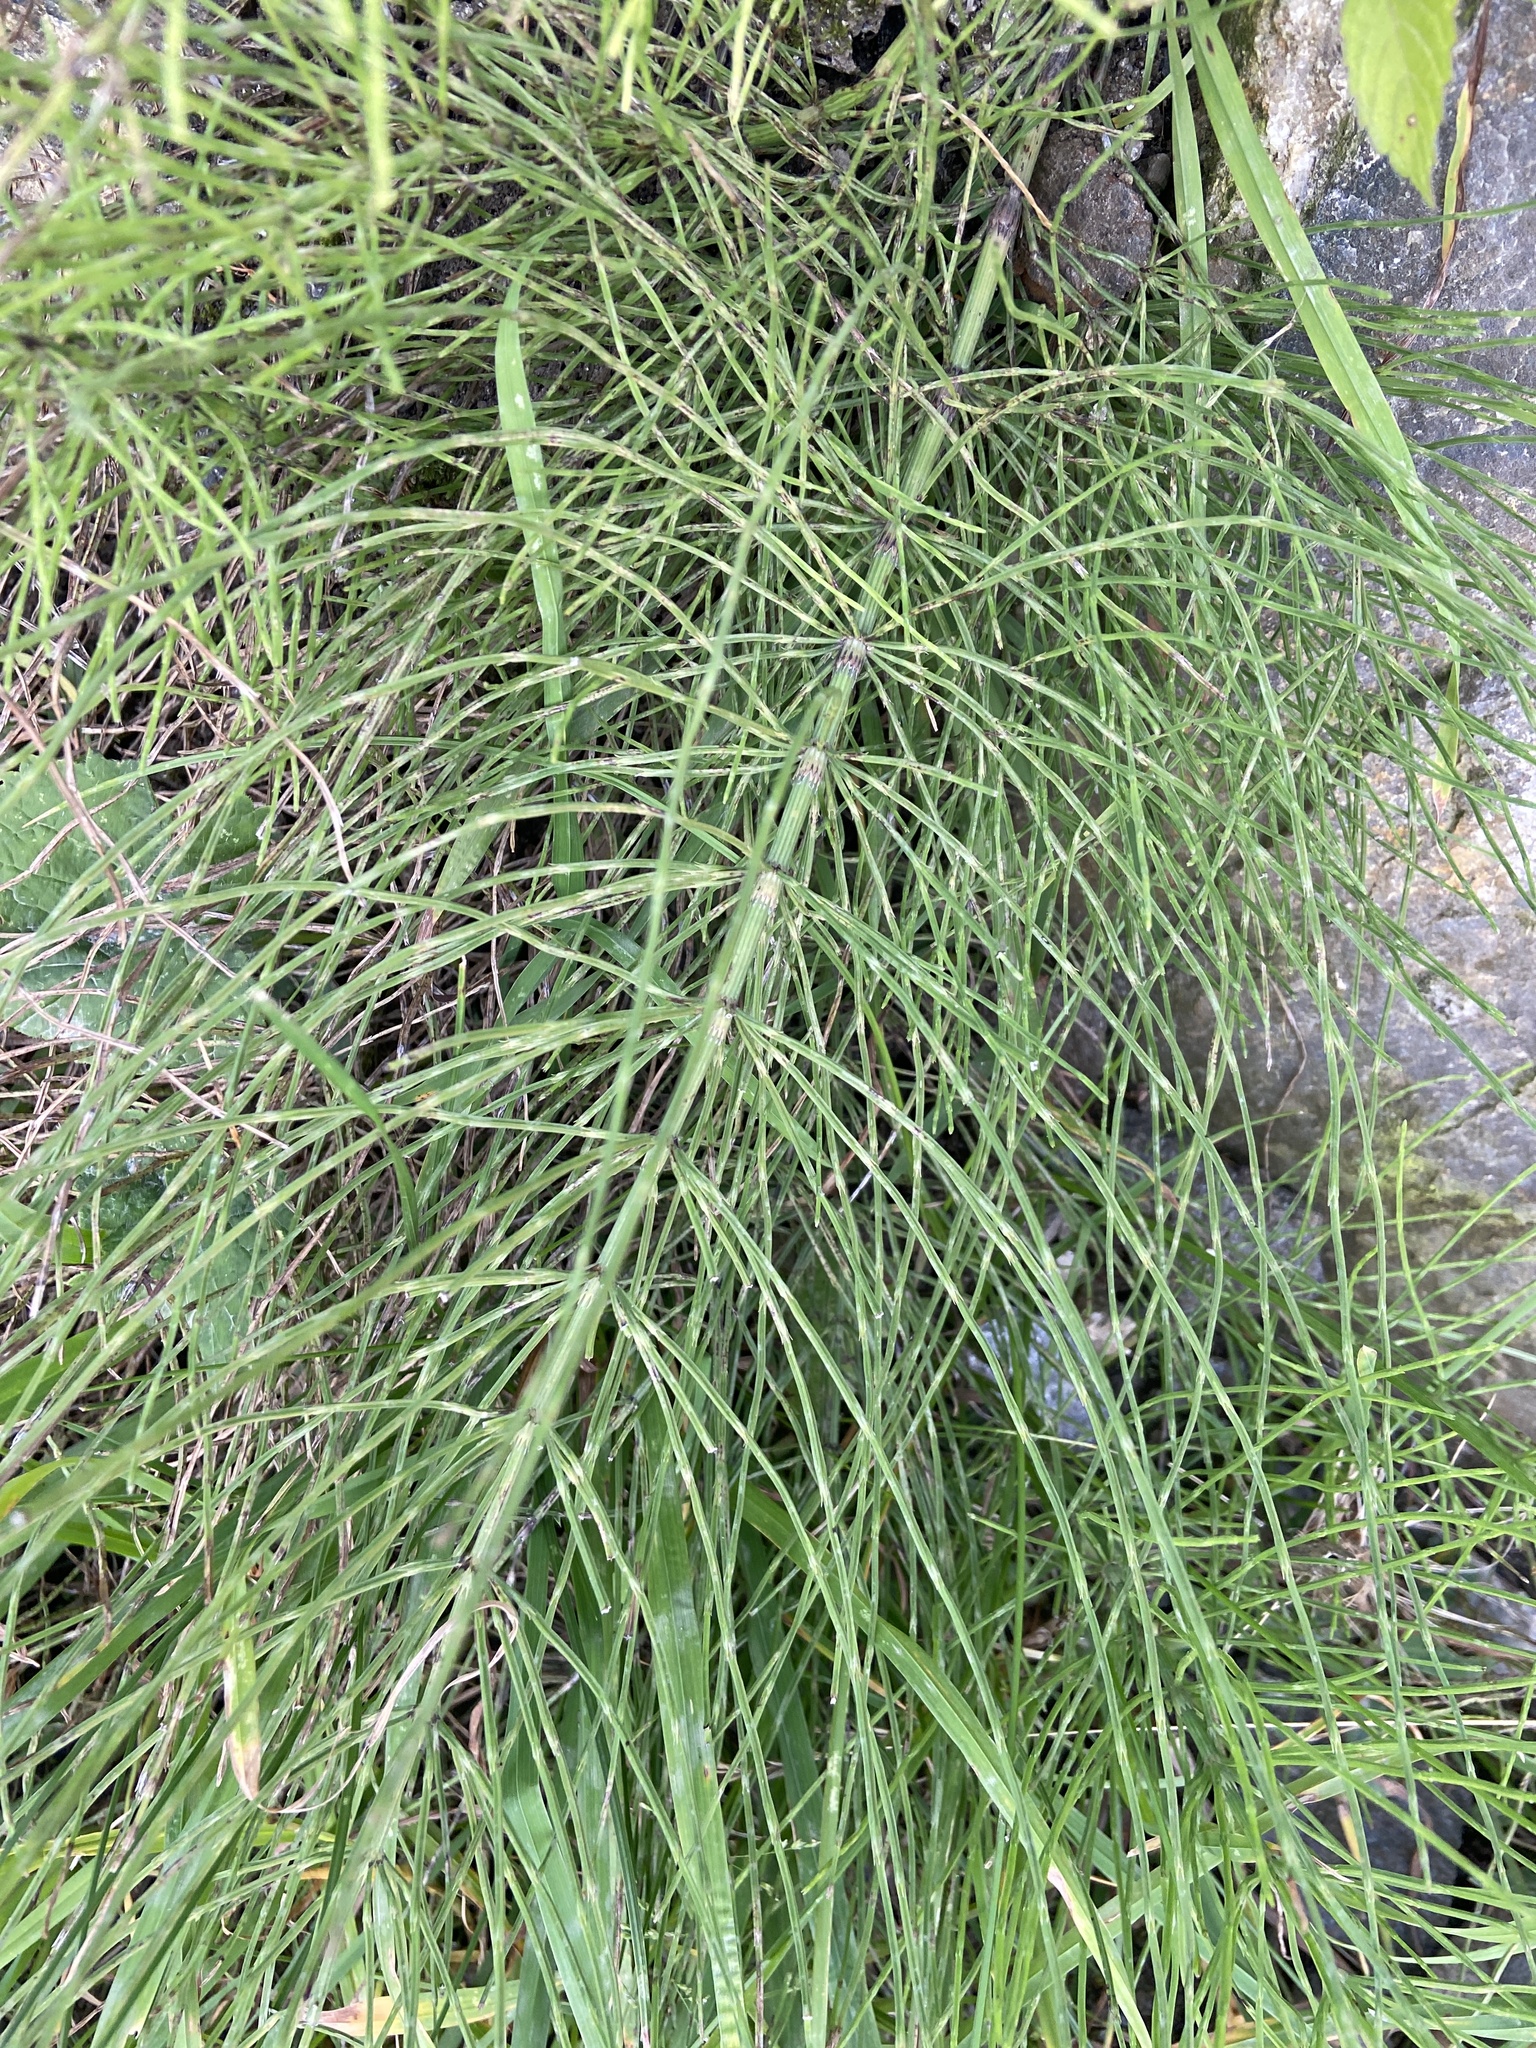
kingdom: Plantae
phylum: Tracheophyta
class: Polypodiopsida
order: Equisetales
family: Equisetaceae
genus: Equisetum
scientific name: Equisetum arvense
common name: Field horsetail
